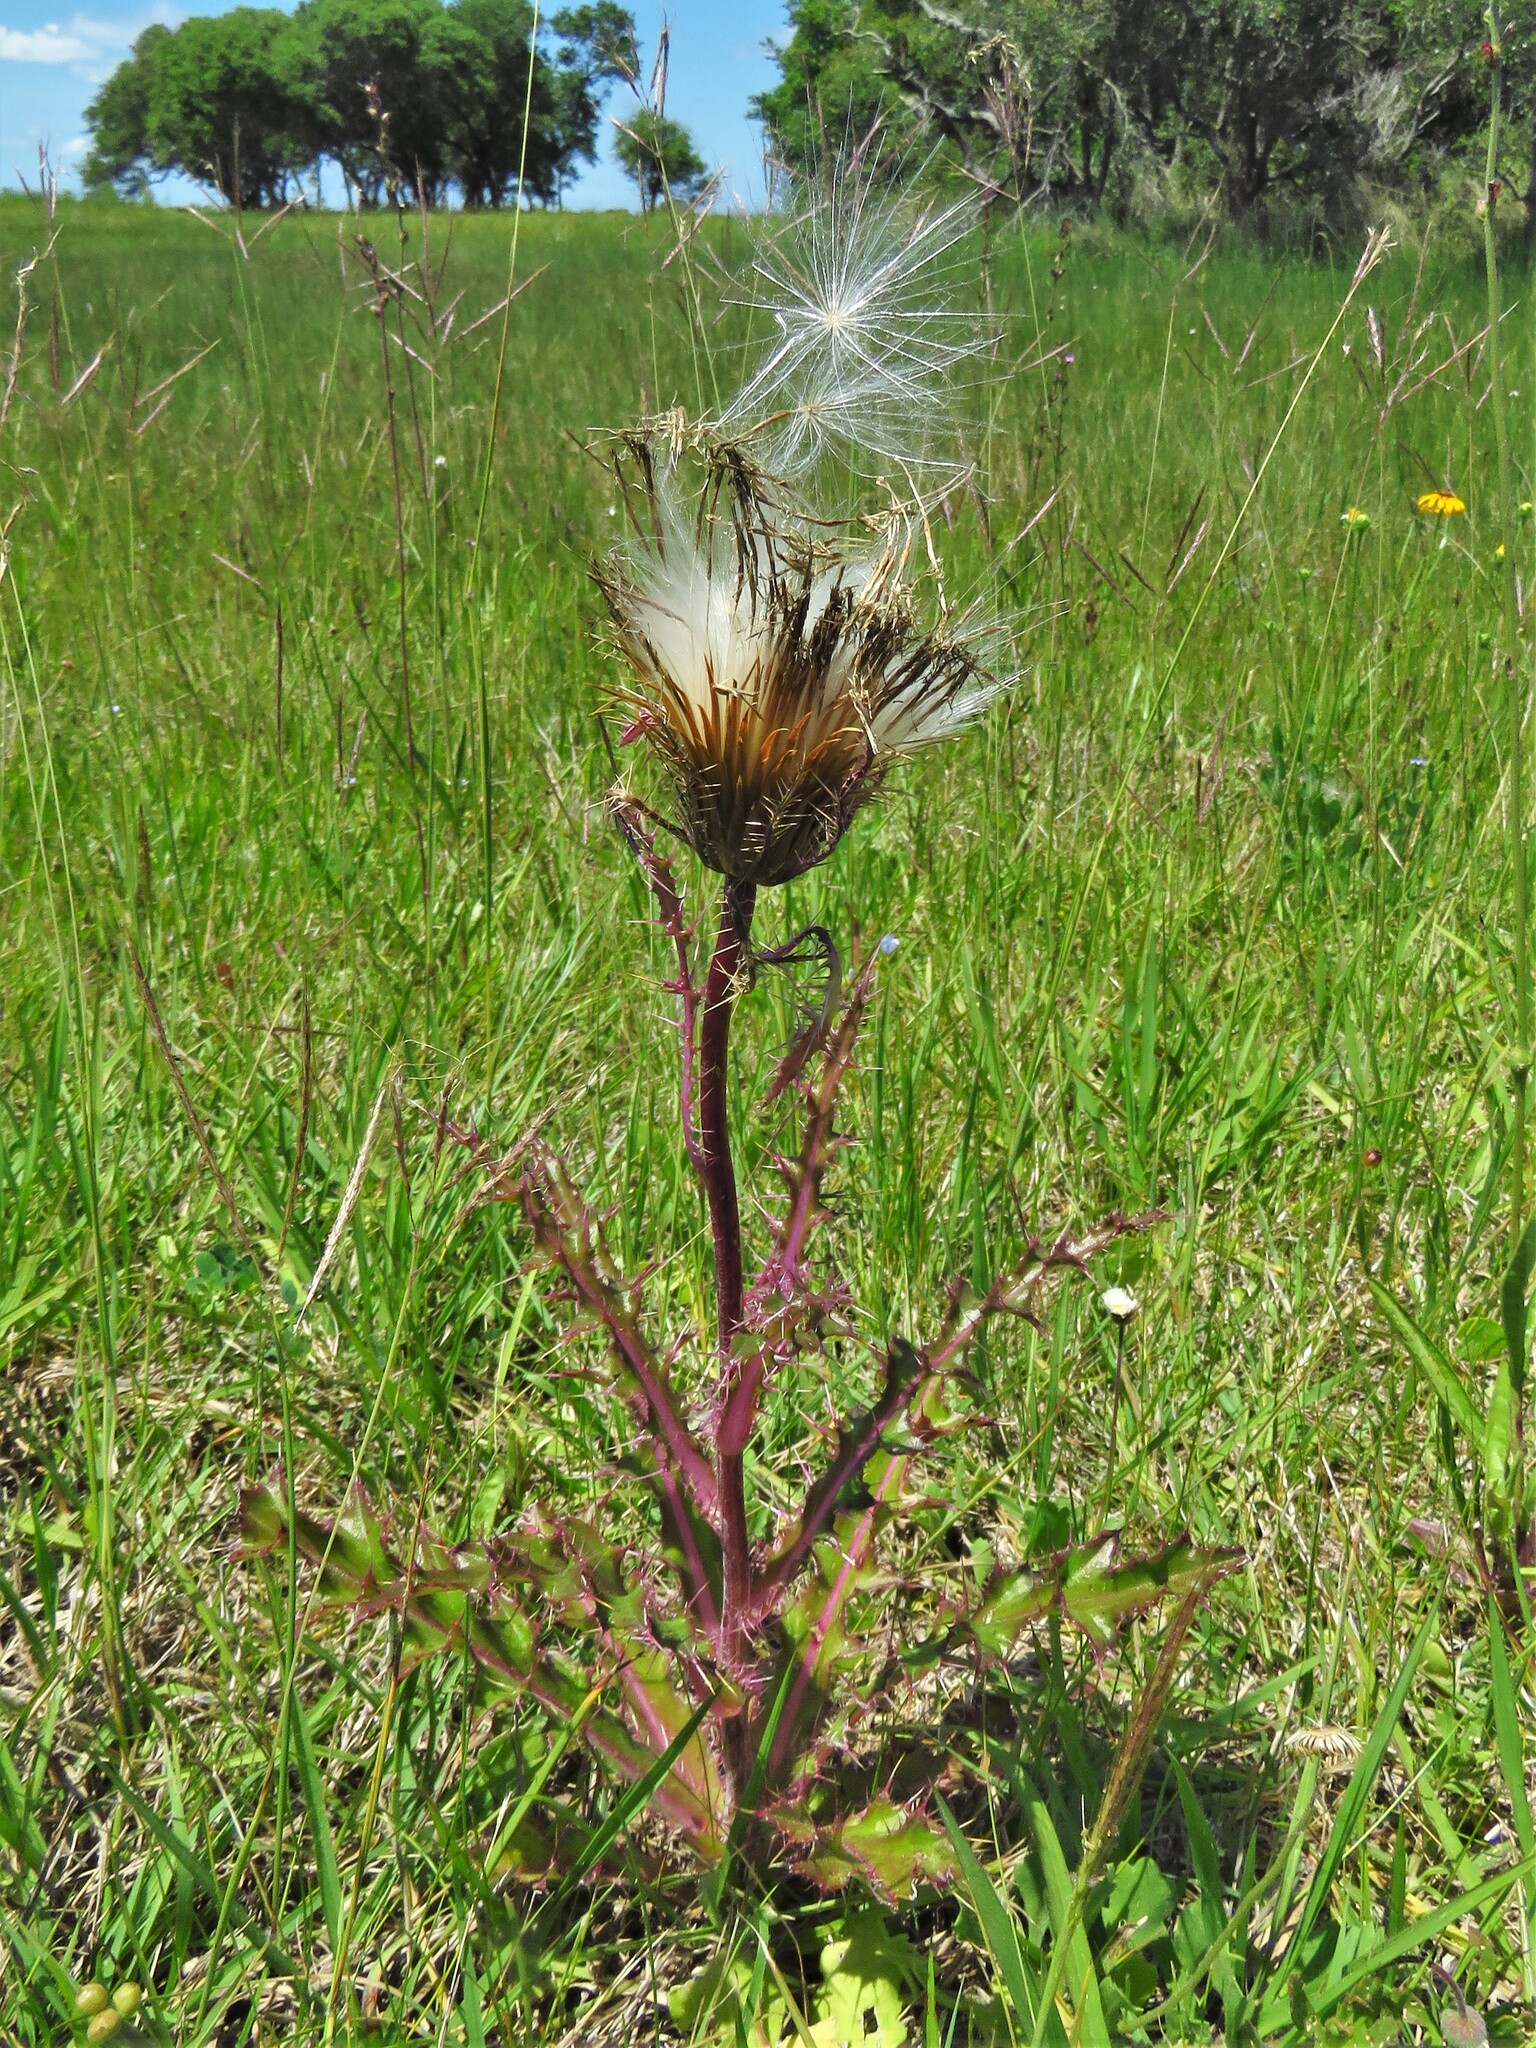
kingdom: Plantae
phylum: Tracheophyta
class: Magnoliopsida
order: Asterales
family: Asteraceae
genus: Cirsium
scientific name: Cirsium horridulum
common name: Bristly thistle
